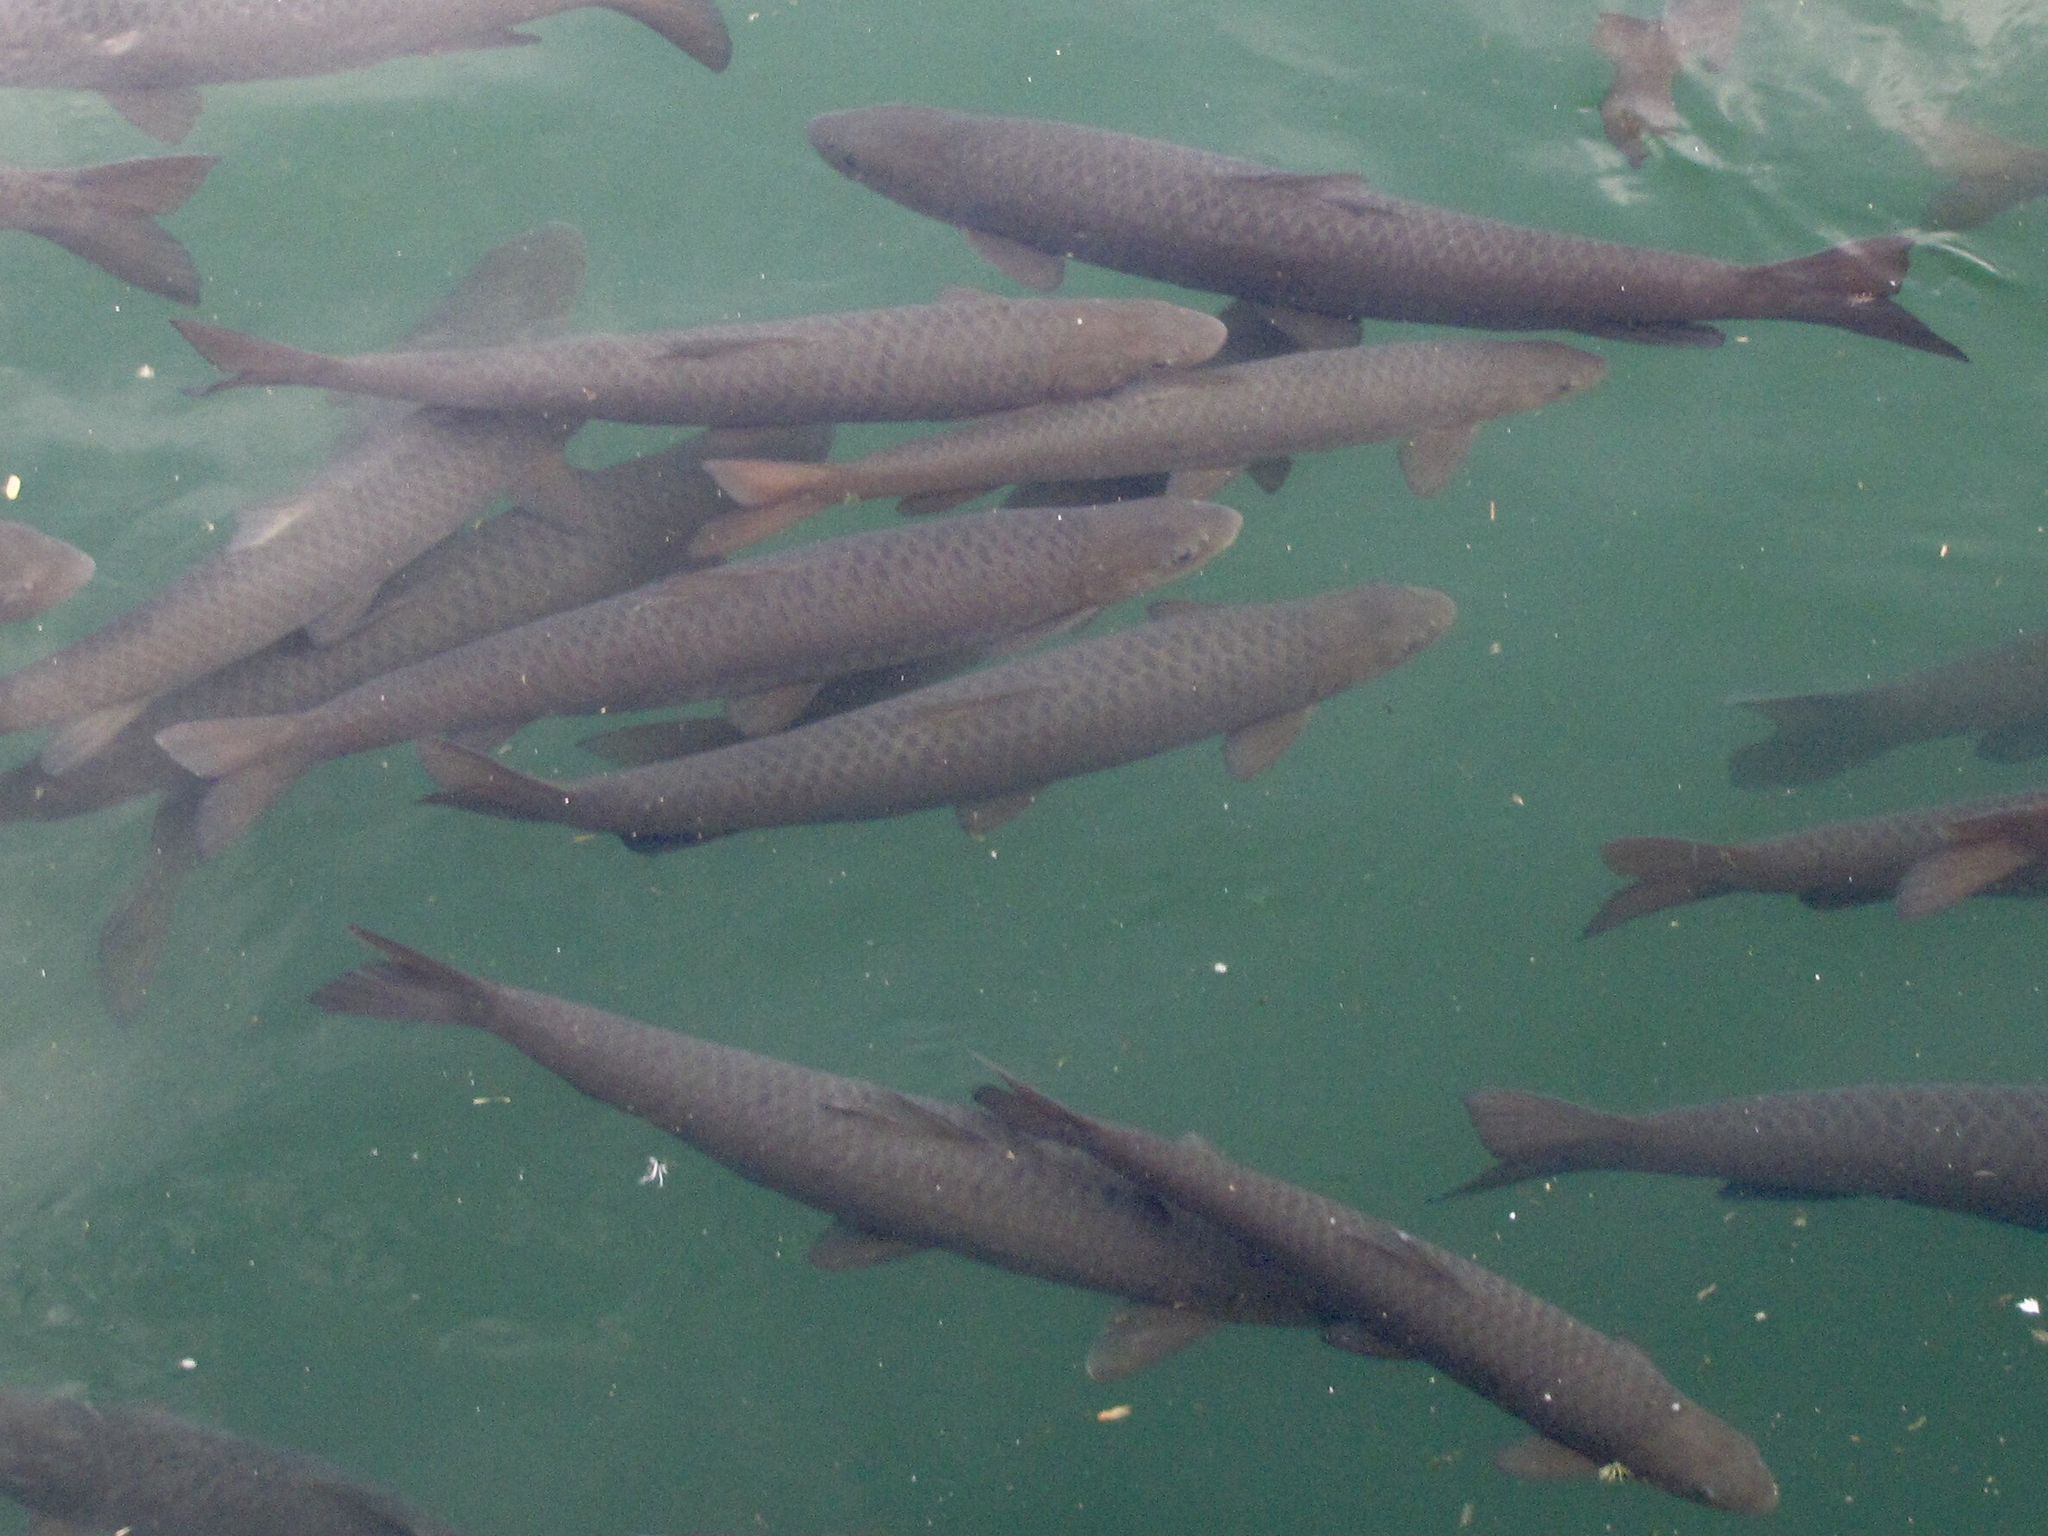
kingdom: Animalia
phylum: Chordata
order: Cypriniformes
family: Cyprinidae
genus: Ctenopharyngodon
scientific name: Ctenopharyngodon idella
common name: Grass carp
